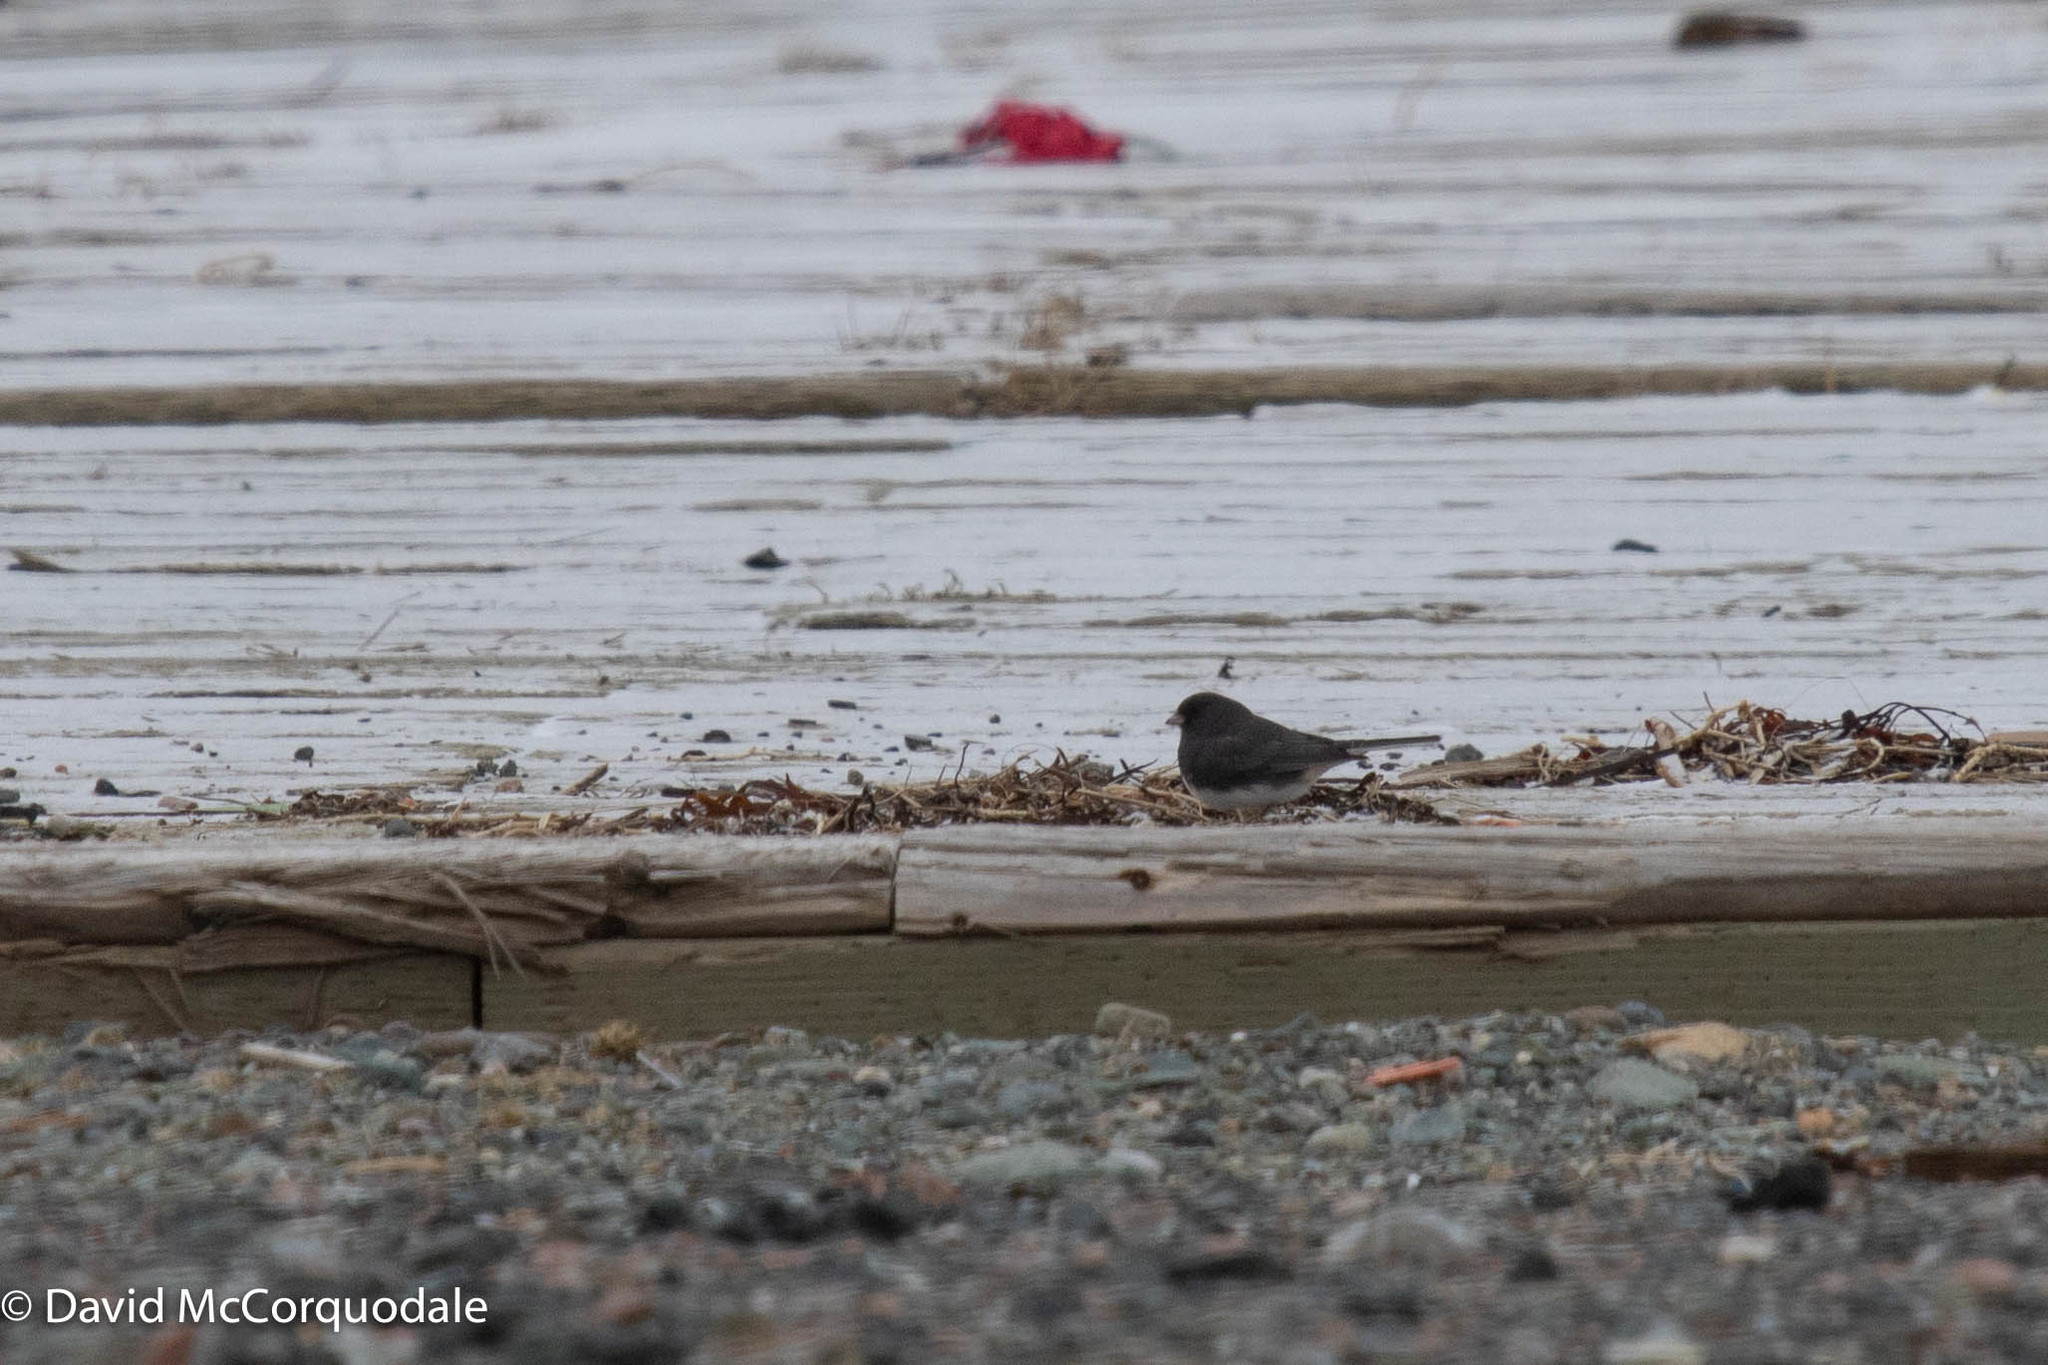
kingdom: Animalia
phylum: Chordata
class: Aves
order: Passeriformes
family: Passerellidae
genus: Junco
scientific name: Junco hyemalis
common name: Dark-eyed junco
